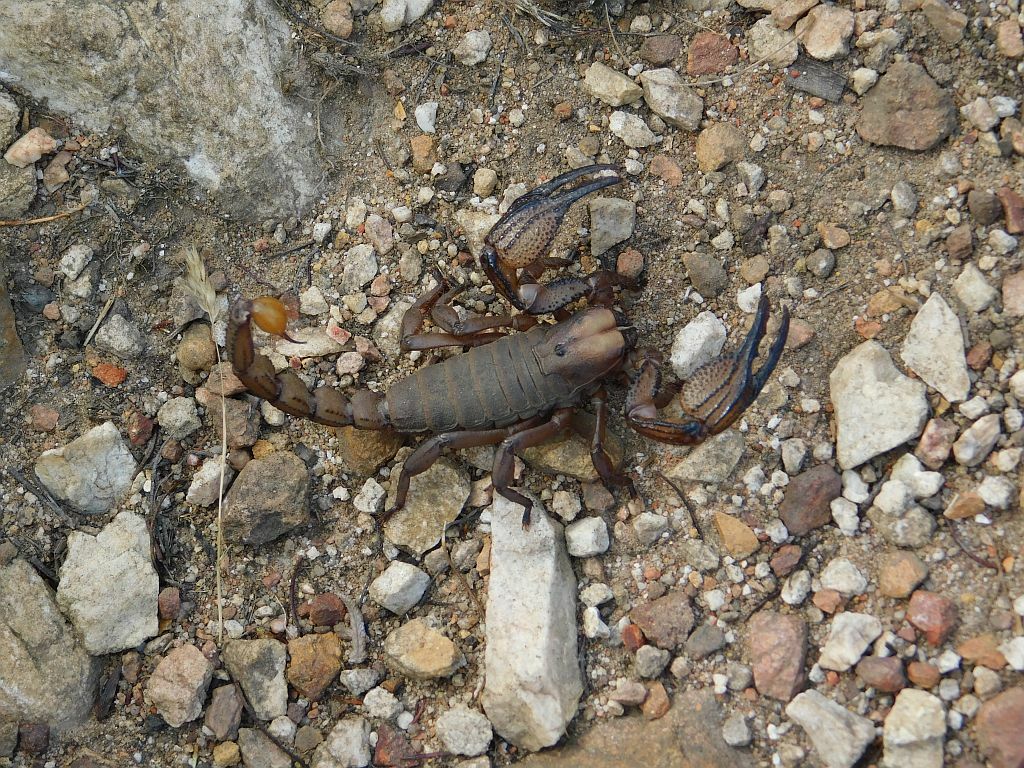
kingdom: Animalia
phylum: Arthropoda
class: Arachnida
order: Scorpiones
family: Scorpionidae
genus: Opistophthalmus
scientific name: Opistophthalmus macer
